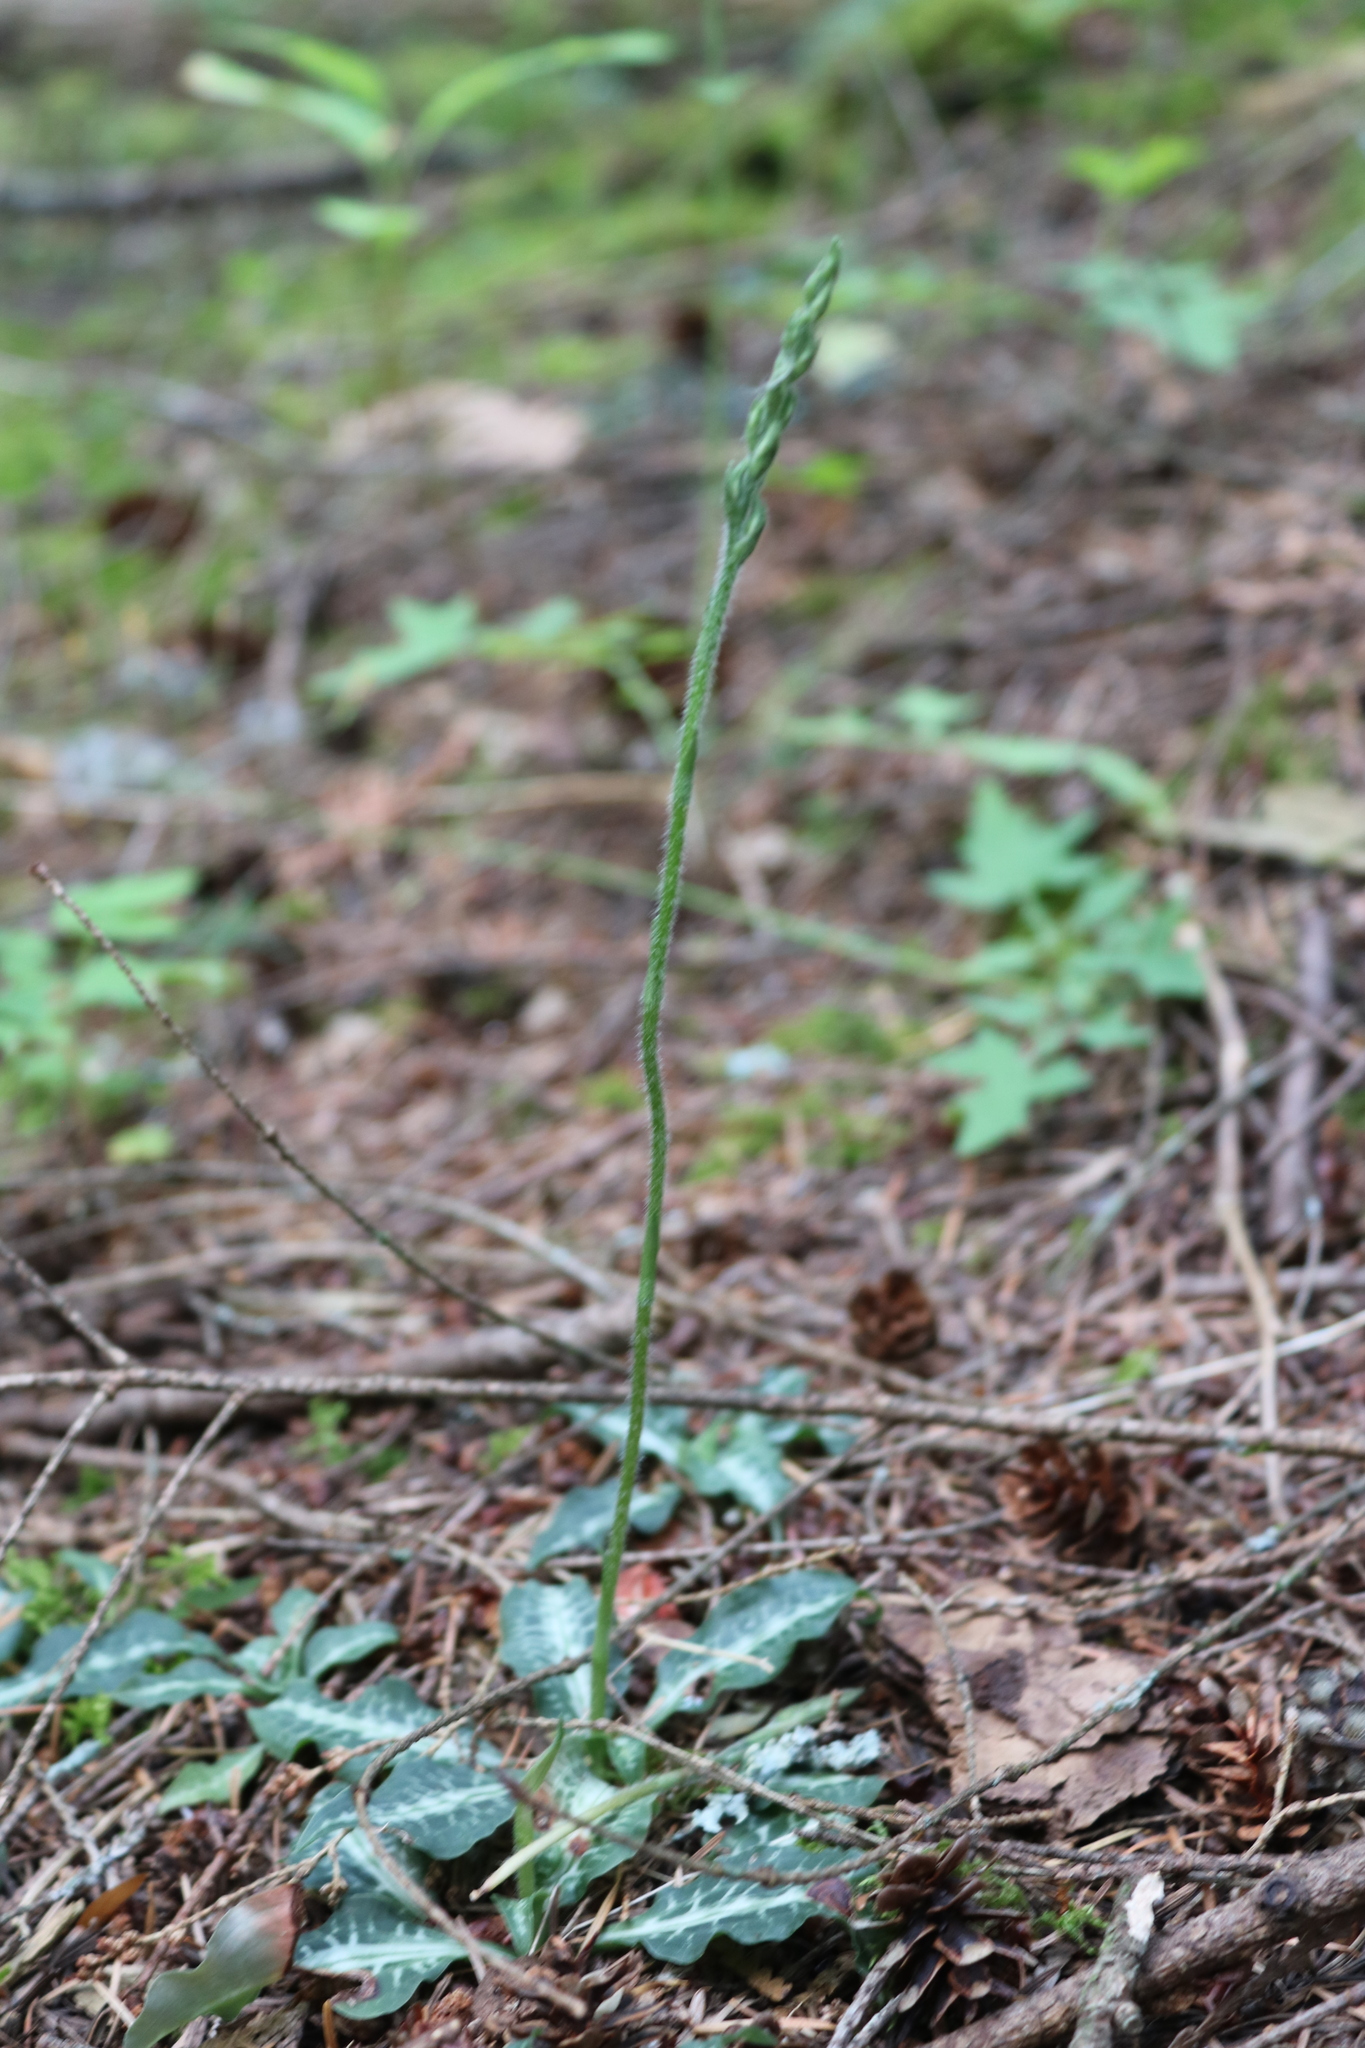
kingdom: Plantae
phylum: Tracheophyta
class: Liliopsida
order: Asparagales
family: Orchidaceae
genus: Goodyera
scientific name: Goodyera oblongifolia
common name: Giant rattlesnake-plantain
